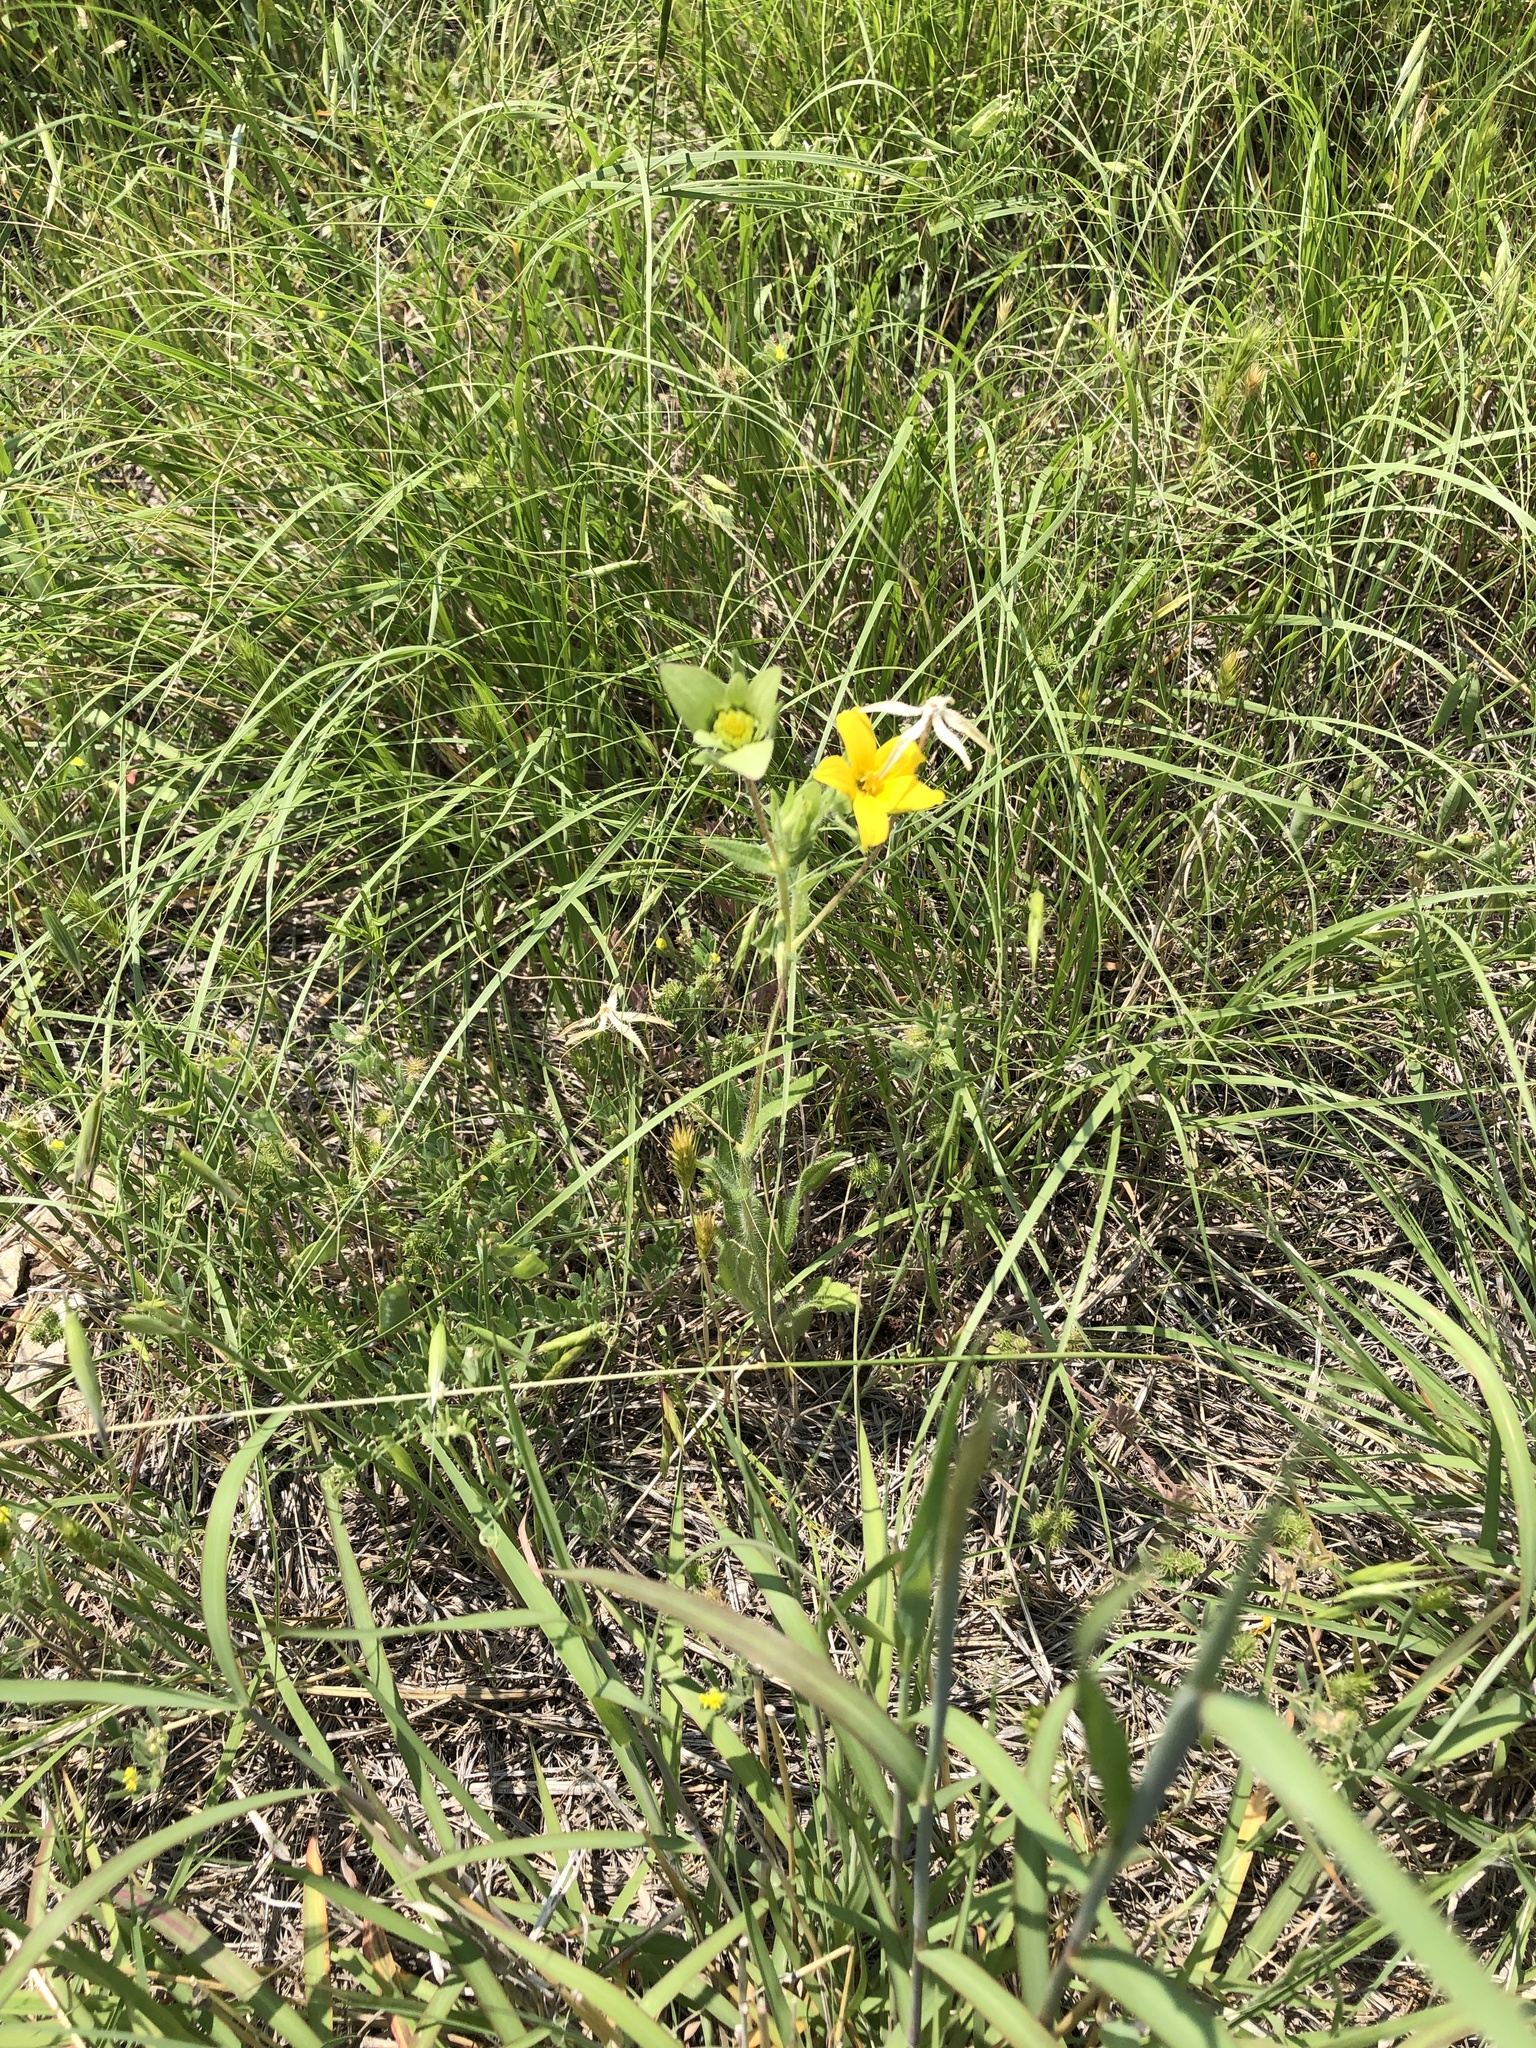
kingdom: Plantae
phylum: Tracheophyta
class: Magnoliopsida
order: Asterales
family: Asteraceae
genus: Lindheimera
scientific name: Lindheimera texana
